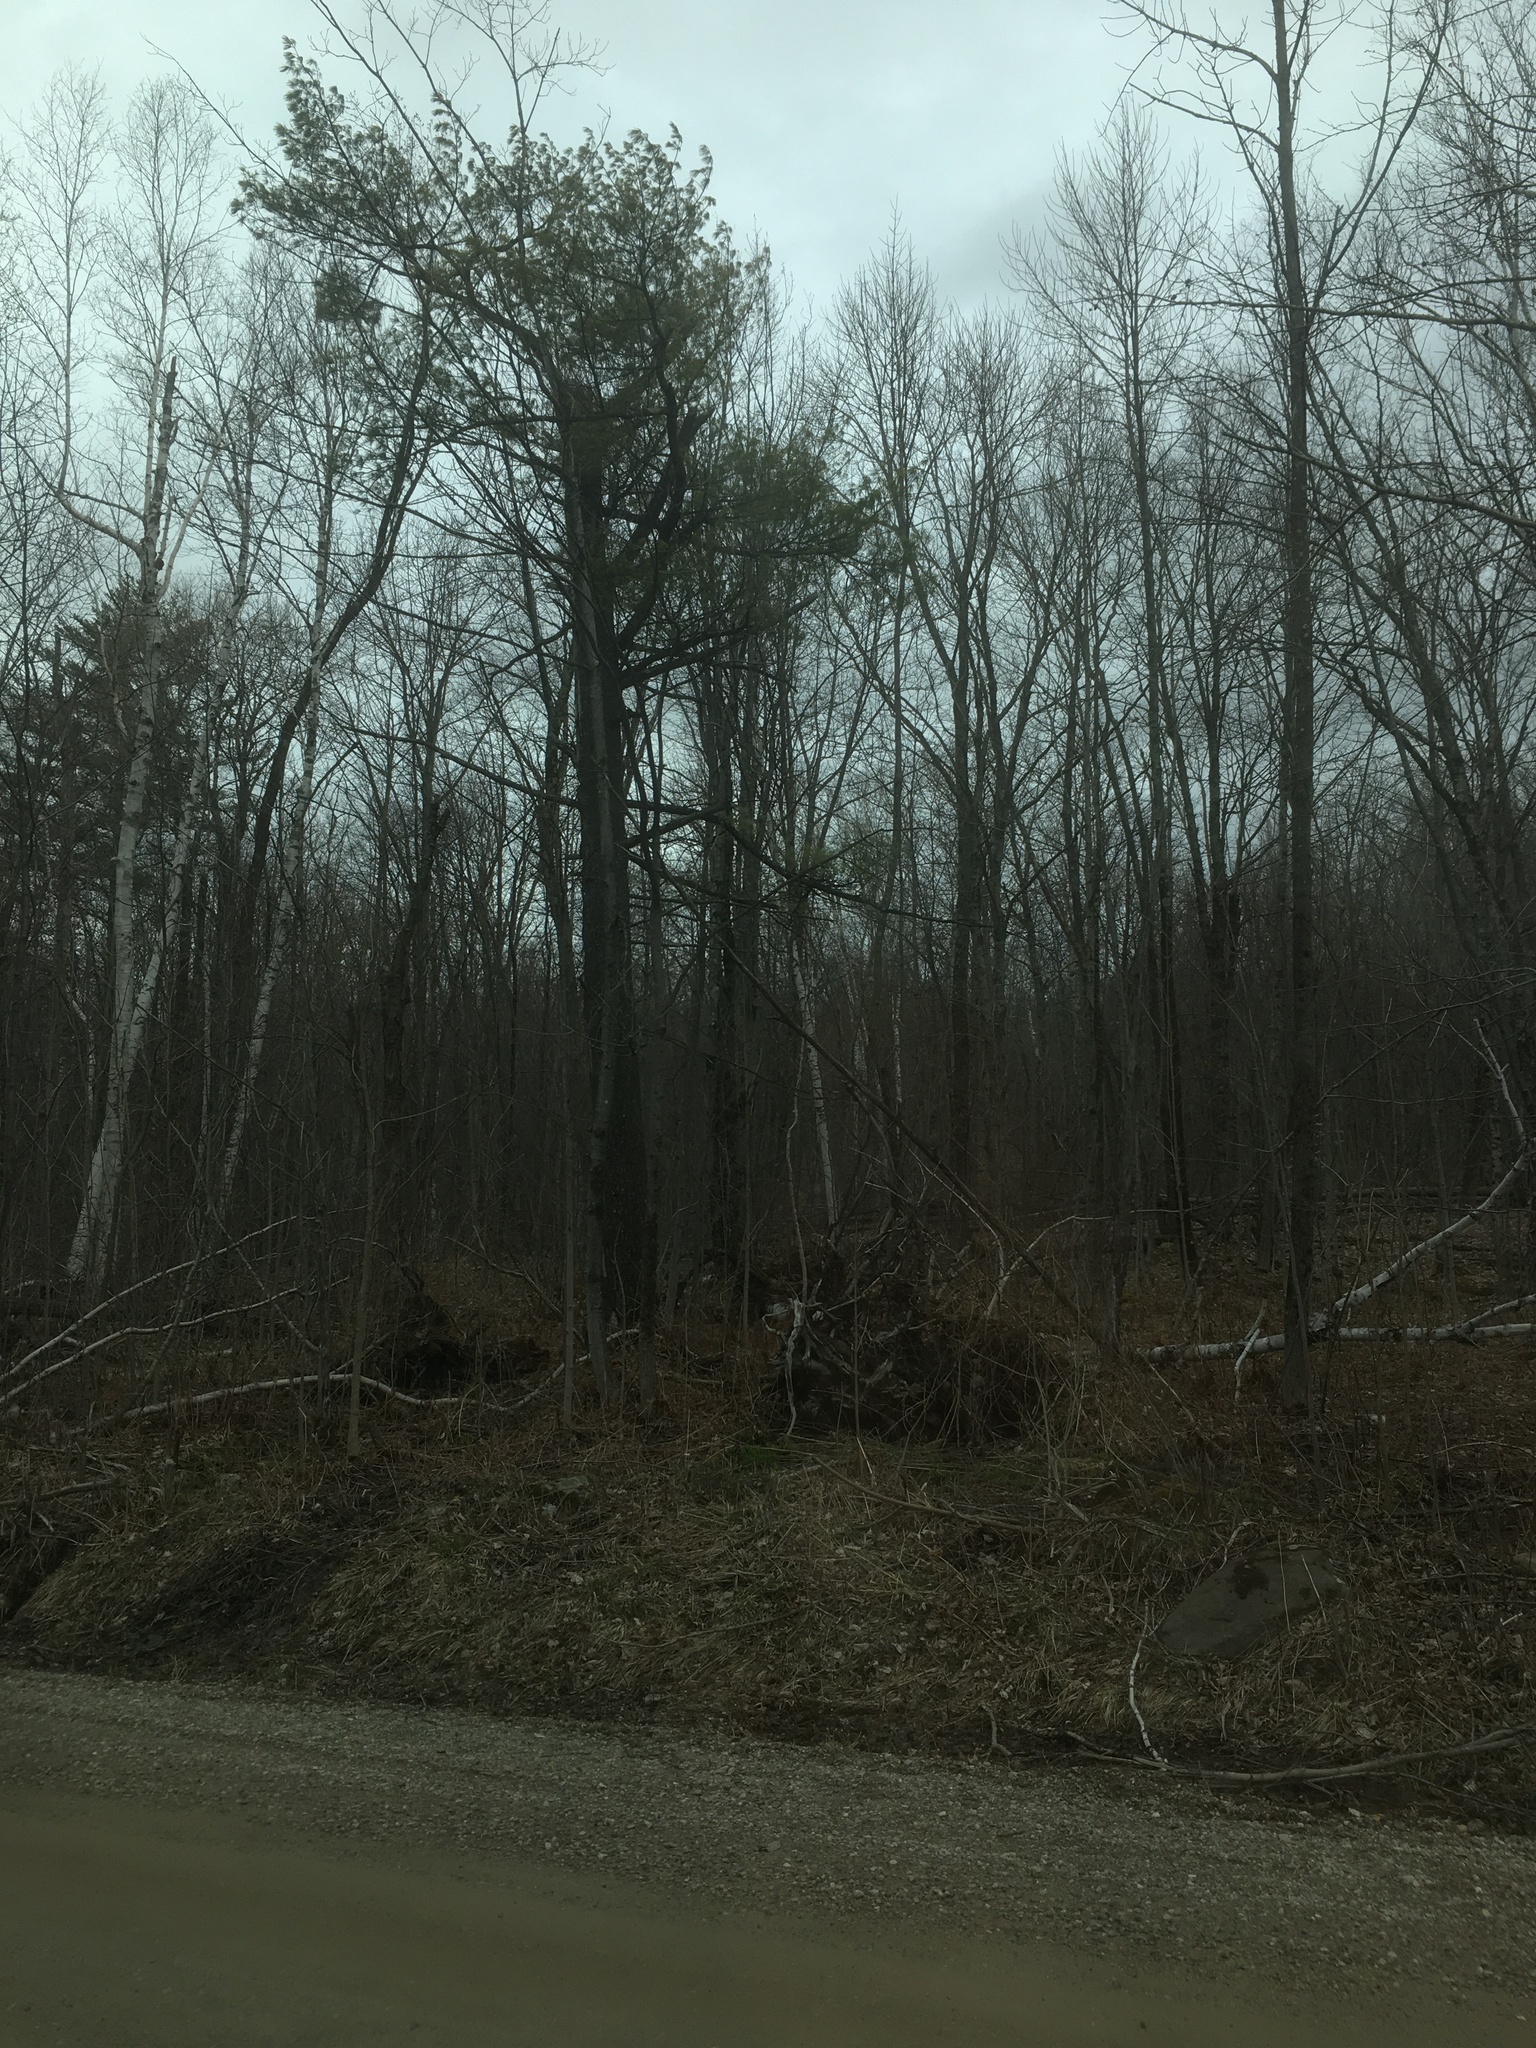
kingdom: Plantae
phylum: Tracheophyta
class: Pinopsida
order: Pinales
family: Pinaceae
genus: Pinus
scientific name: Pinus strobus
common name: Weymouth pine
